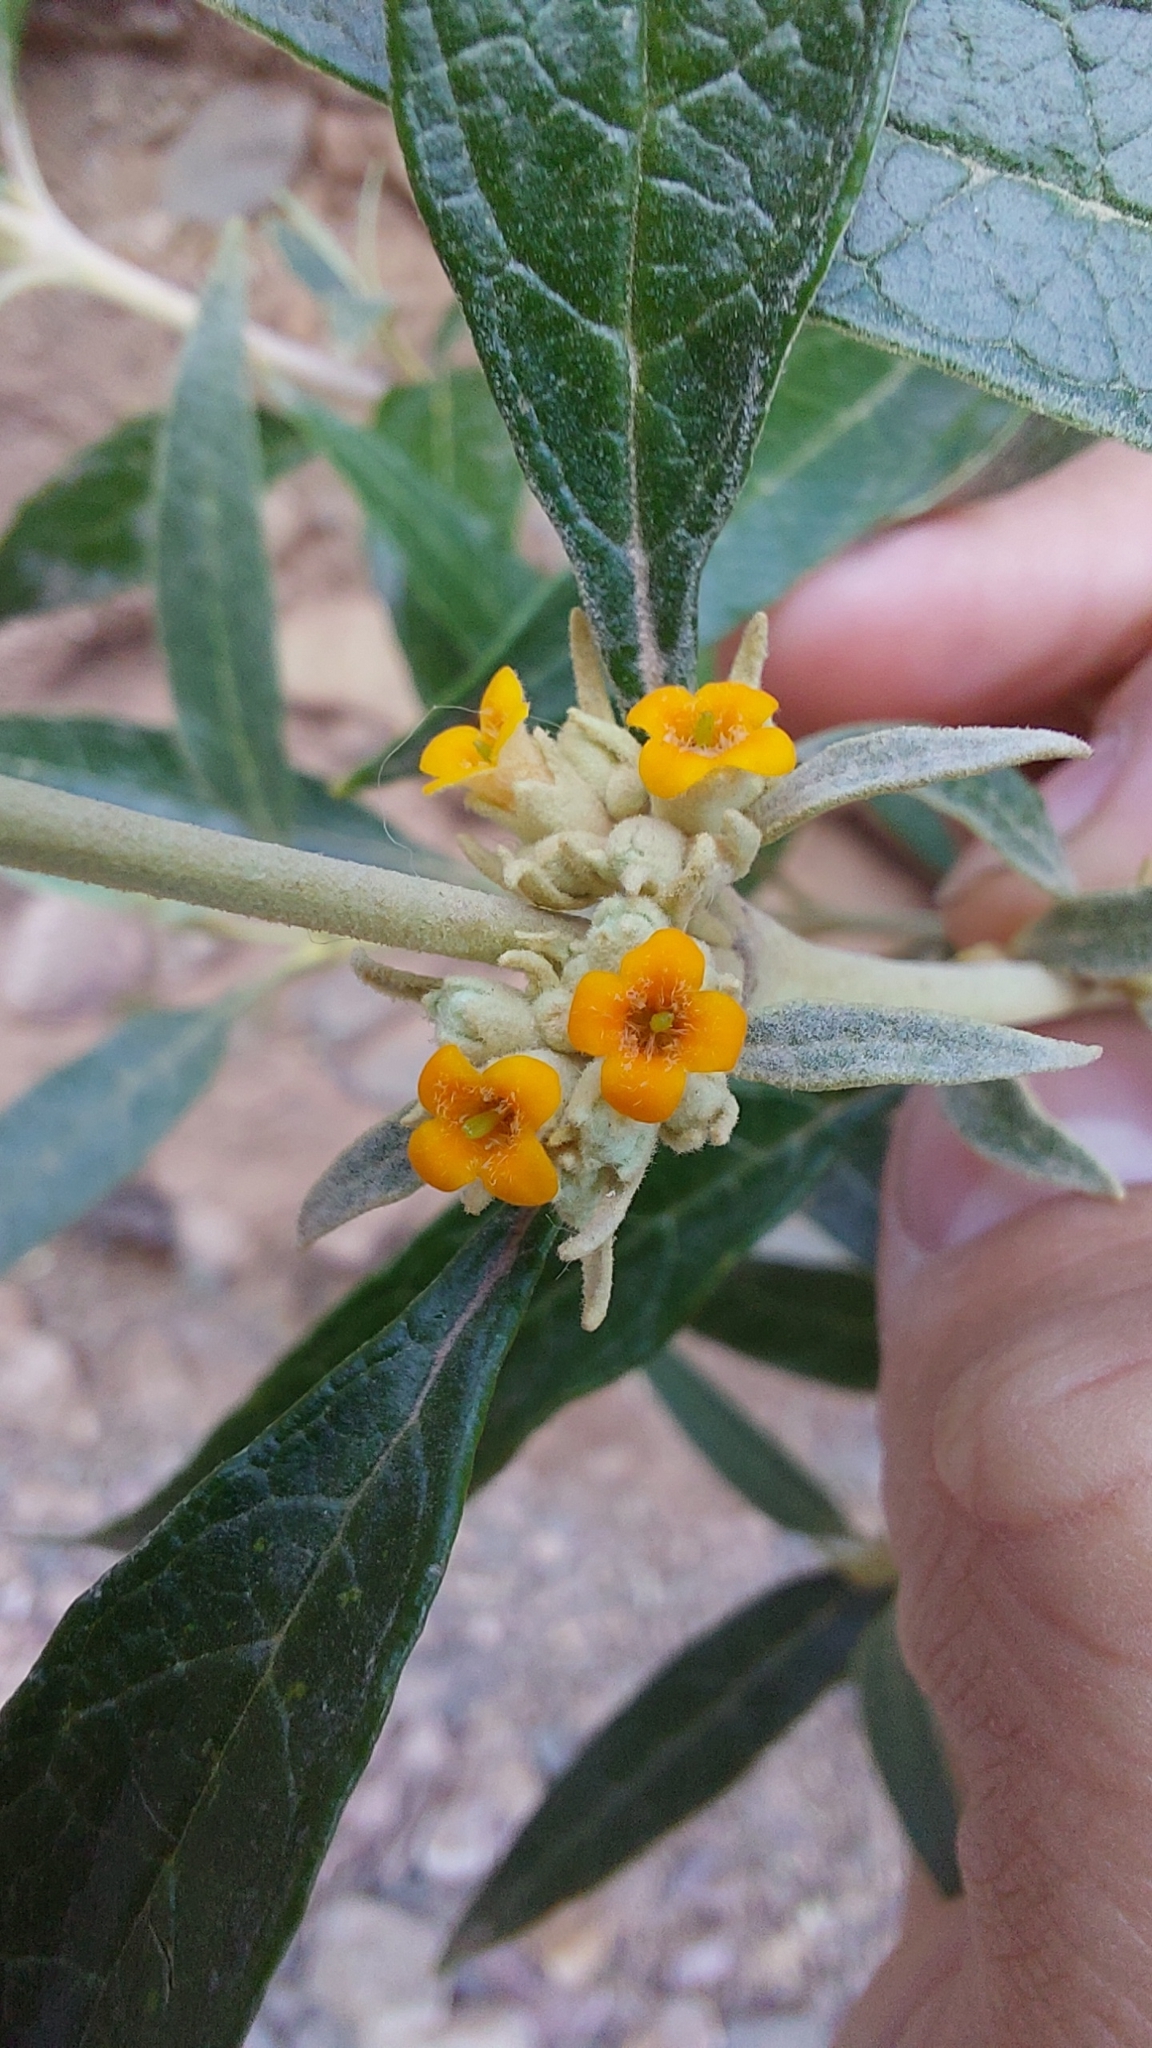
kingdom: Plantae
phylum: Tracheophyta
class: Magnoliopsida
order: Lamiales
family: Scrophulariaceae
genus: Buddleja
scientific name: Buddleja tucumanensis
